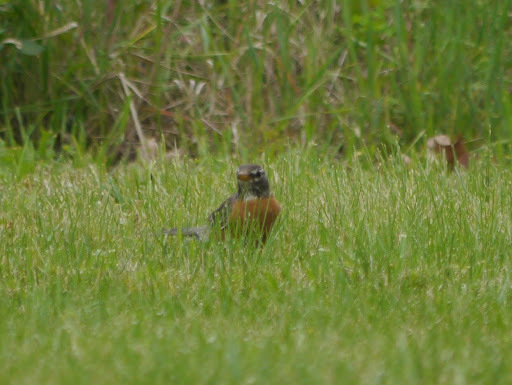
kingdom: Animalia
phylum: Chordata
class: Aves
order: Passeriformes
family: Turdidae
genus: Turdus
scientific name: Turdus migratorius
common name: American robin
